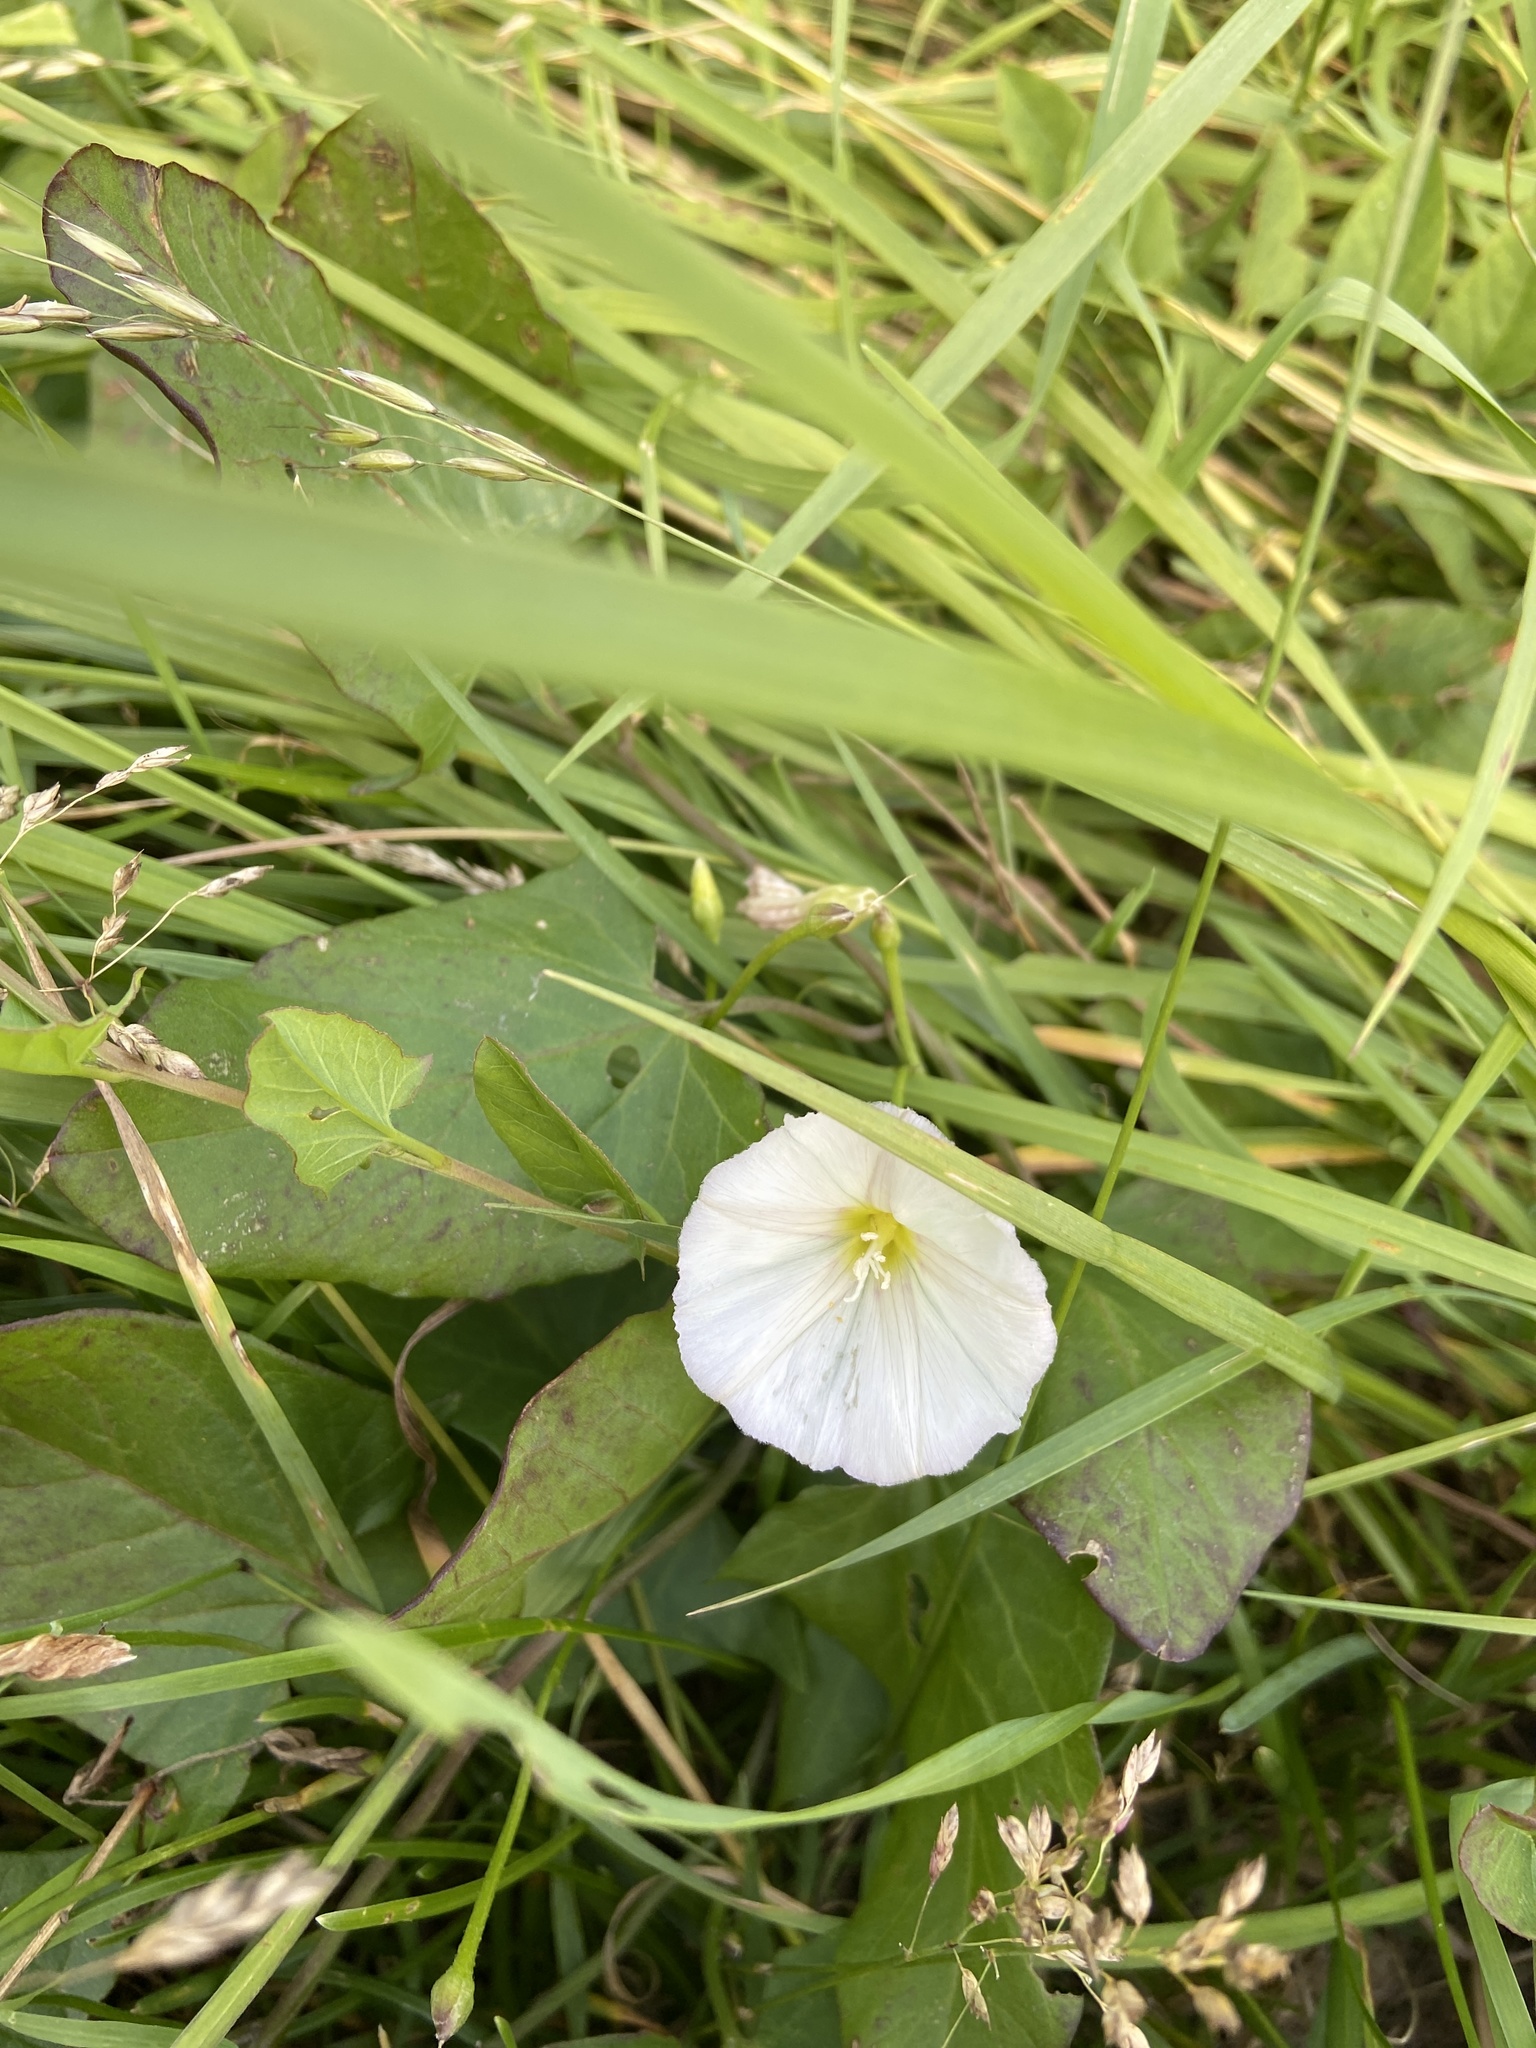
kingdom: Plantae
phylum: Tracheophyta
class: Magnoliopsida
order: Solanales
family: Convolvulaceae
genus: Convolvulus
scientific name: Convolvulus arvensis
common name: Field bindweed
